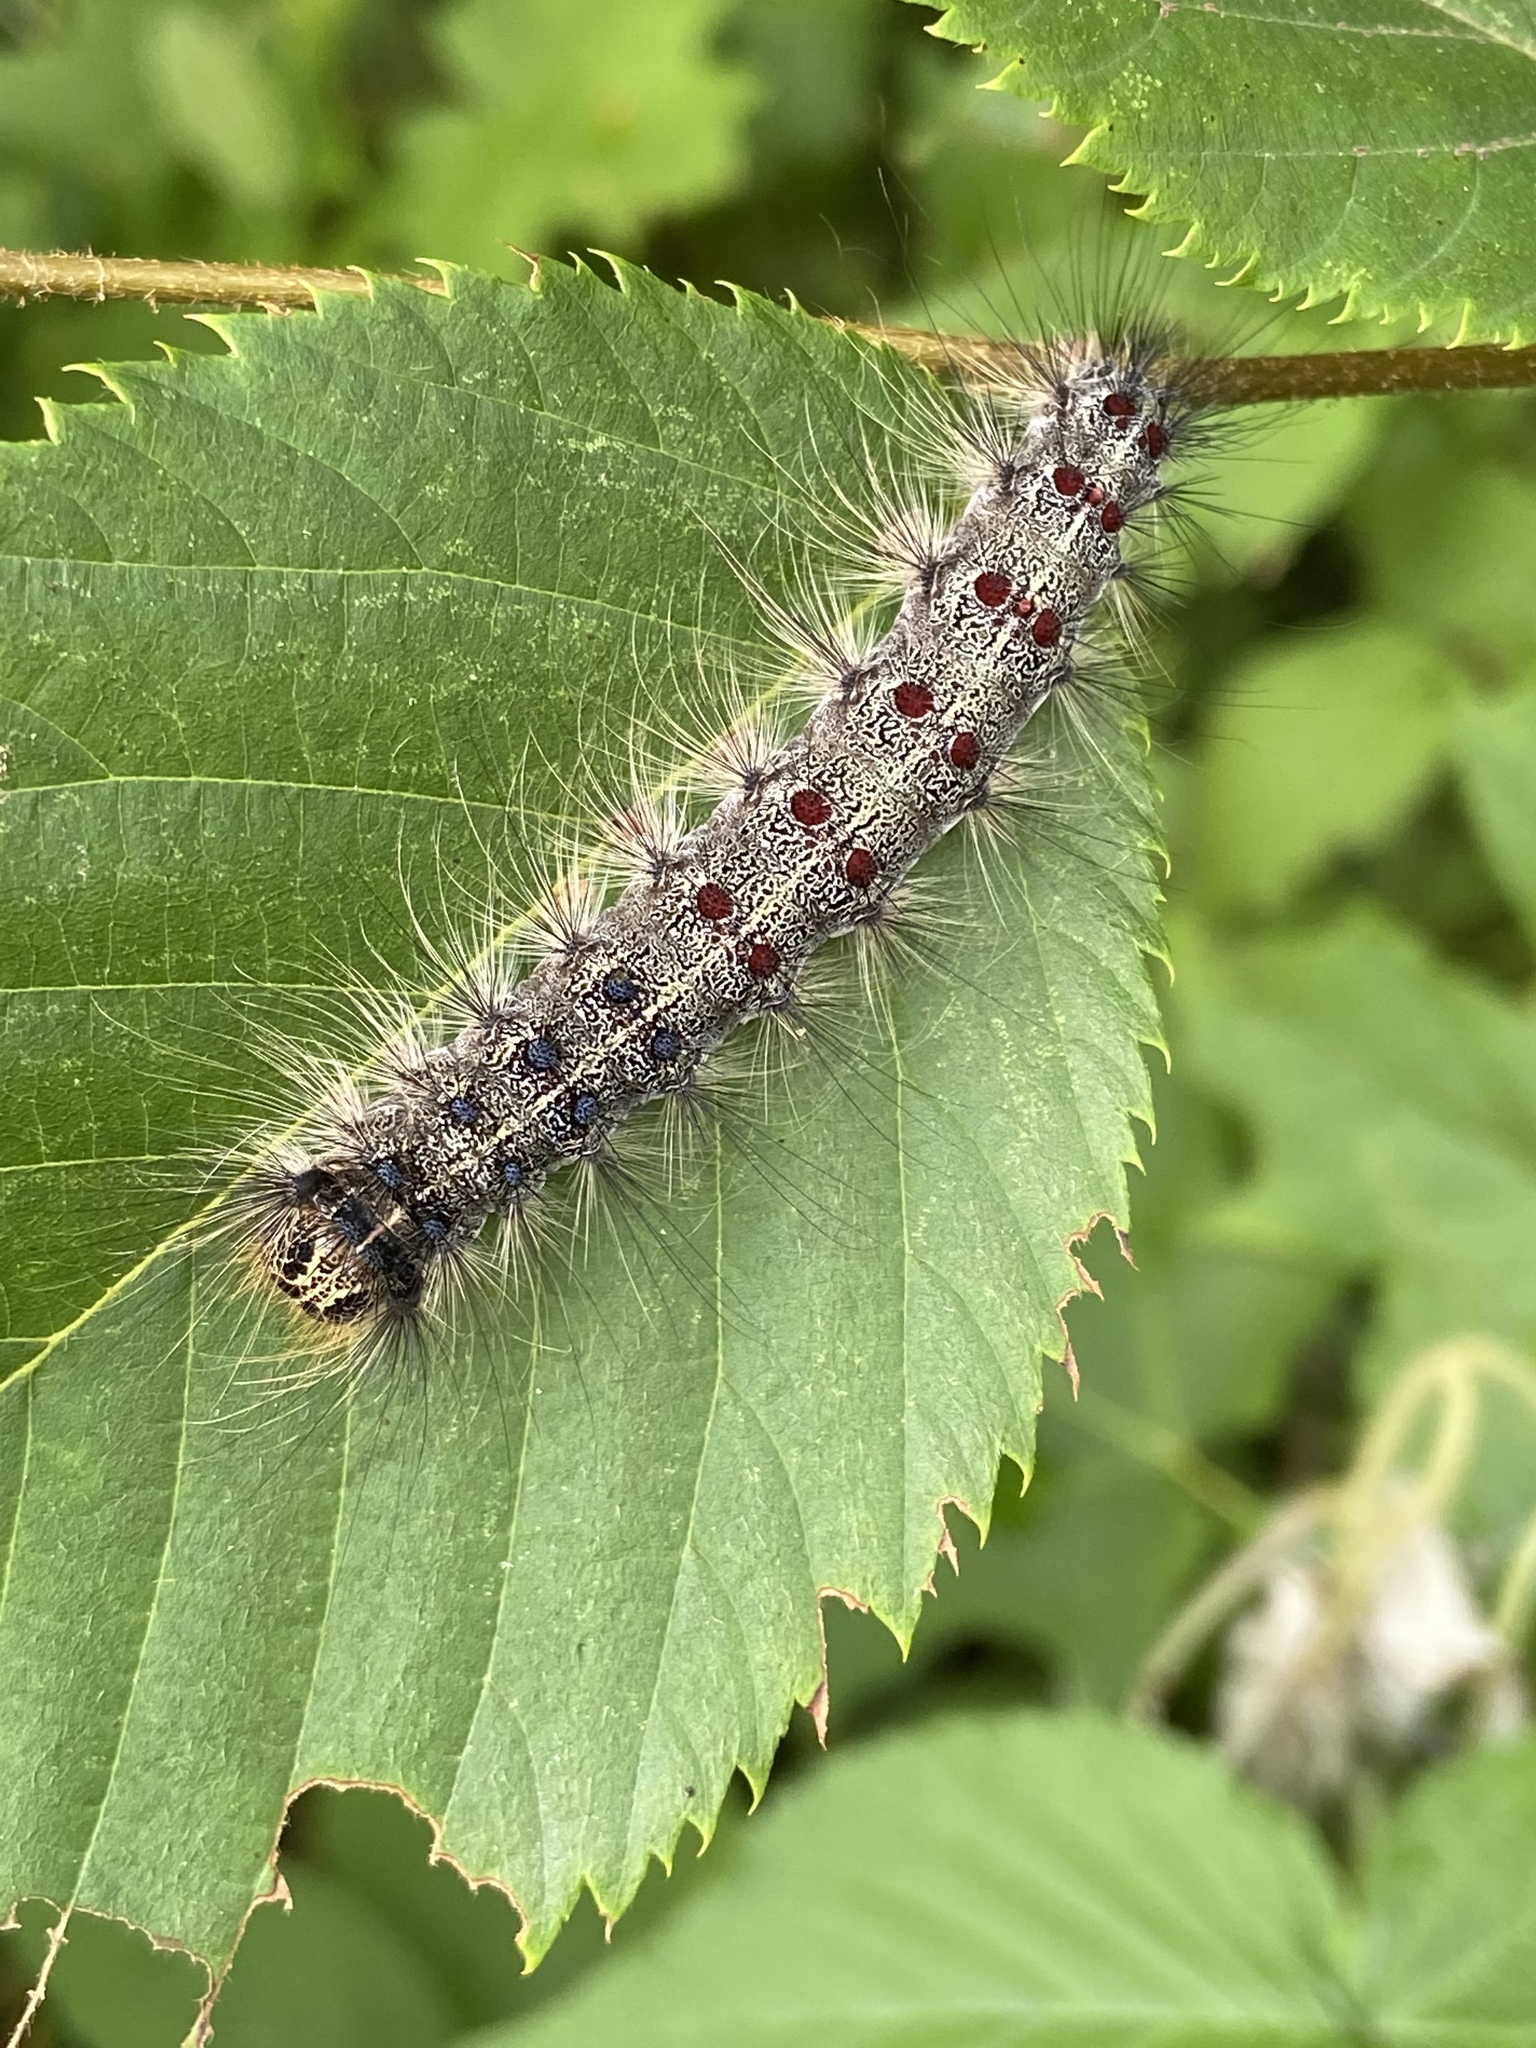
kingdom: Animalia
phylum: Arthropoda
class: Insecta
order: Lepidoptera
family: Erebidae
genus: Lymantria
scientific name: Lymantria dispar
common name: Gypsy moth
